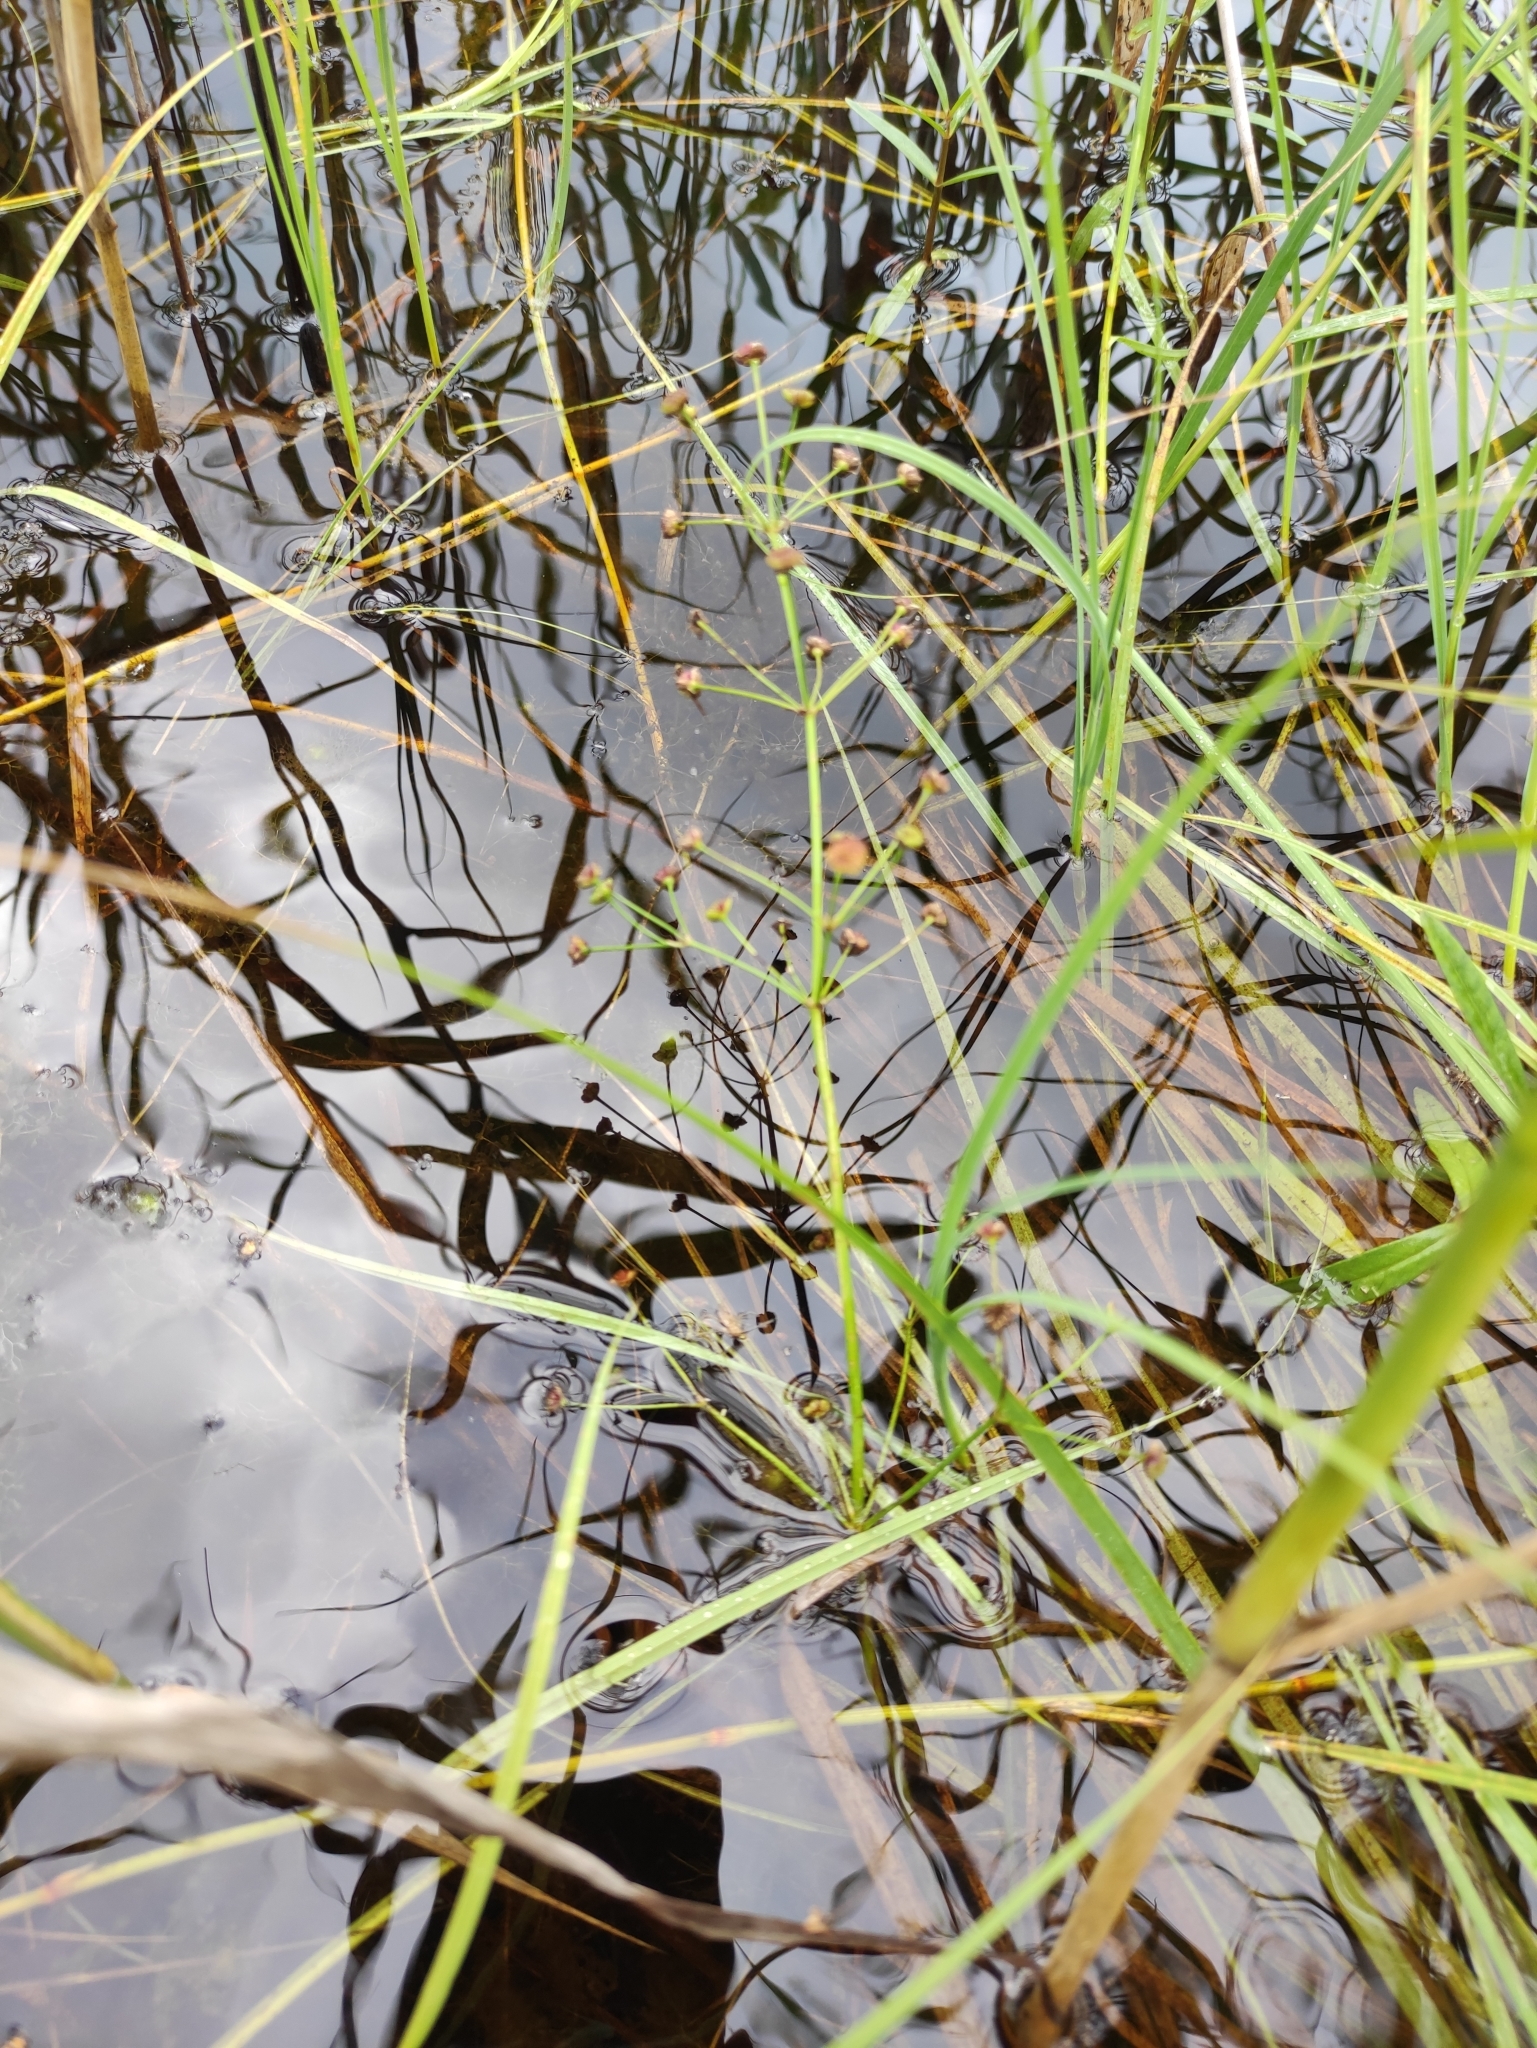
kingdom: Plantae
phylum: Tracheophyta
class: Liliopsida
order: Alismatales
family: Alismataceae
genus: Alisma
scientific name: Alisma plantago-aquatica
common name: Water-plantain
